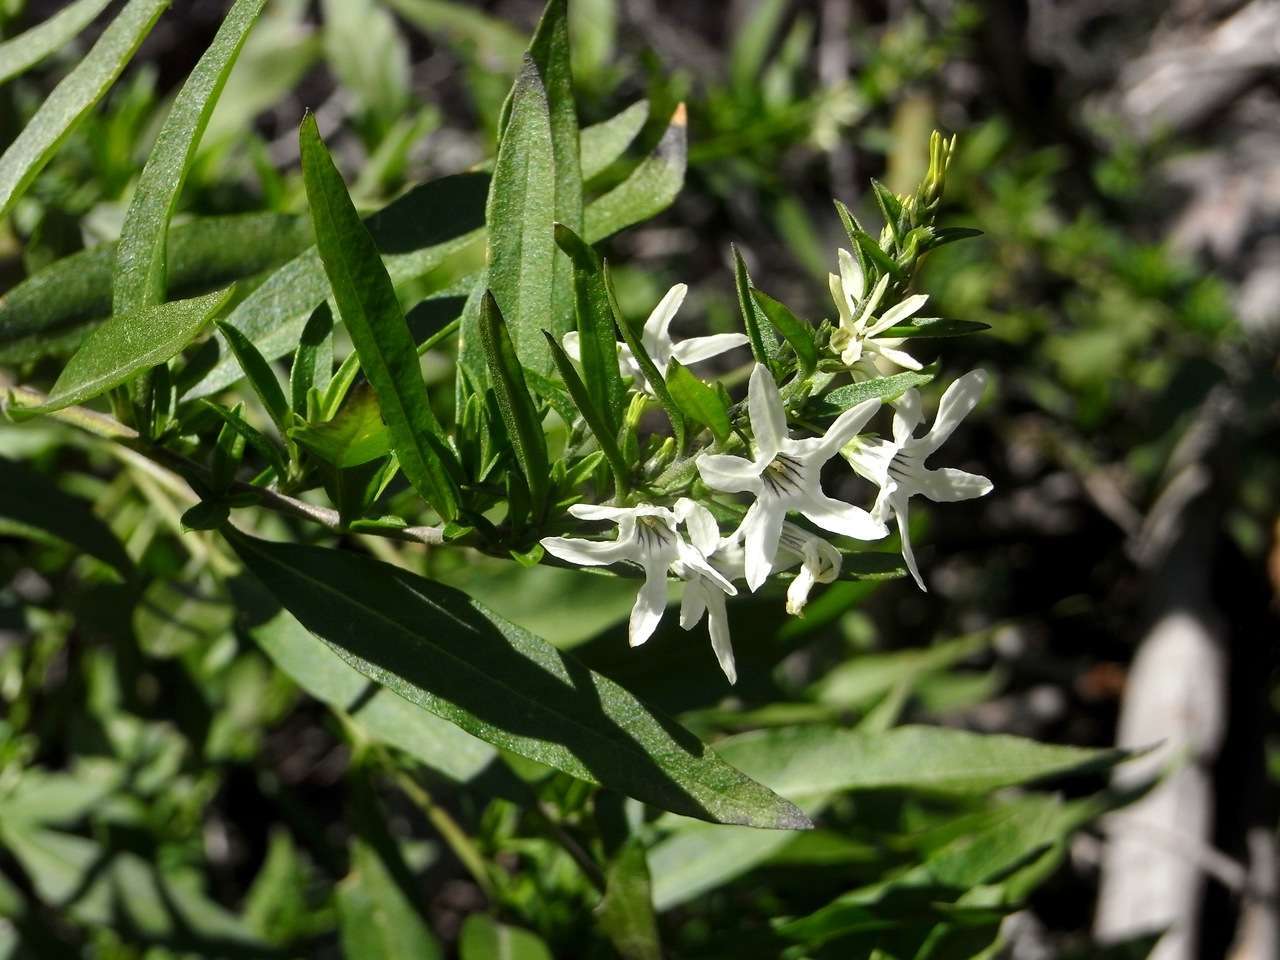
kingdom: Plantae
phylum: Tracheophyta
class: Magnoliopsida
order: Solanales
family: Solanaceae
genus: Cyphanthera
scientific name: Cyphanthera anthocercidea
